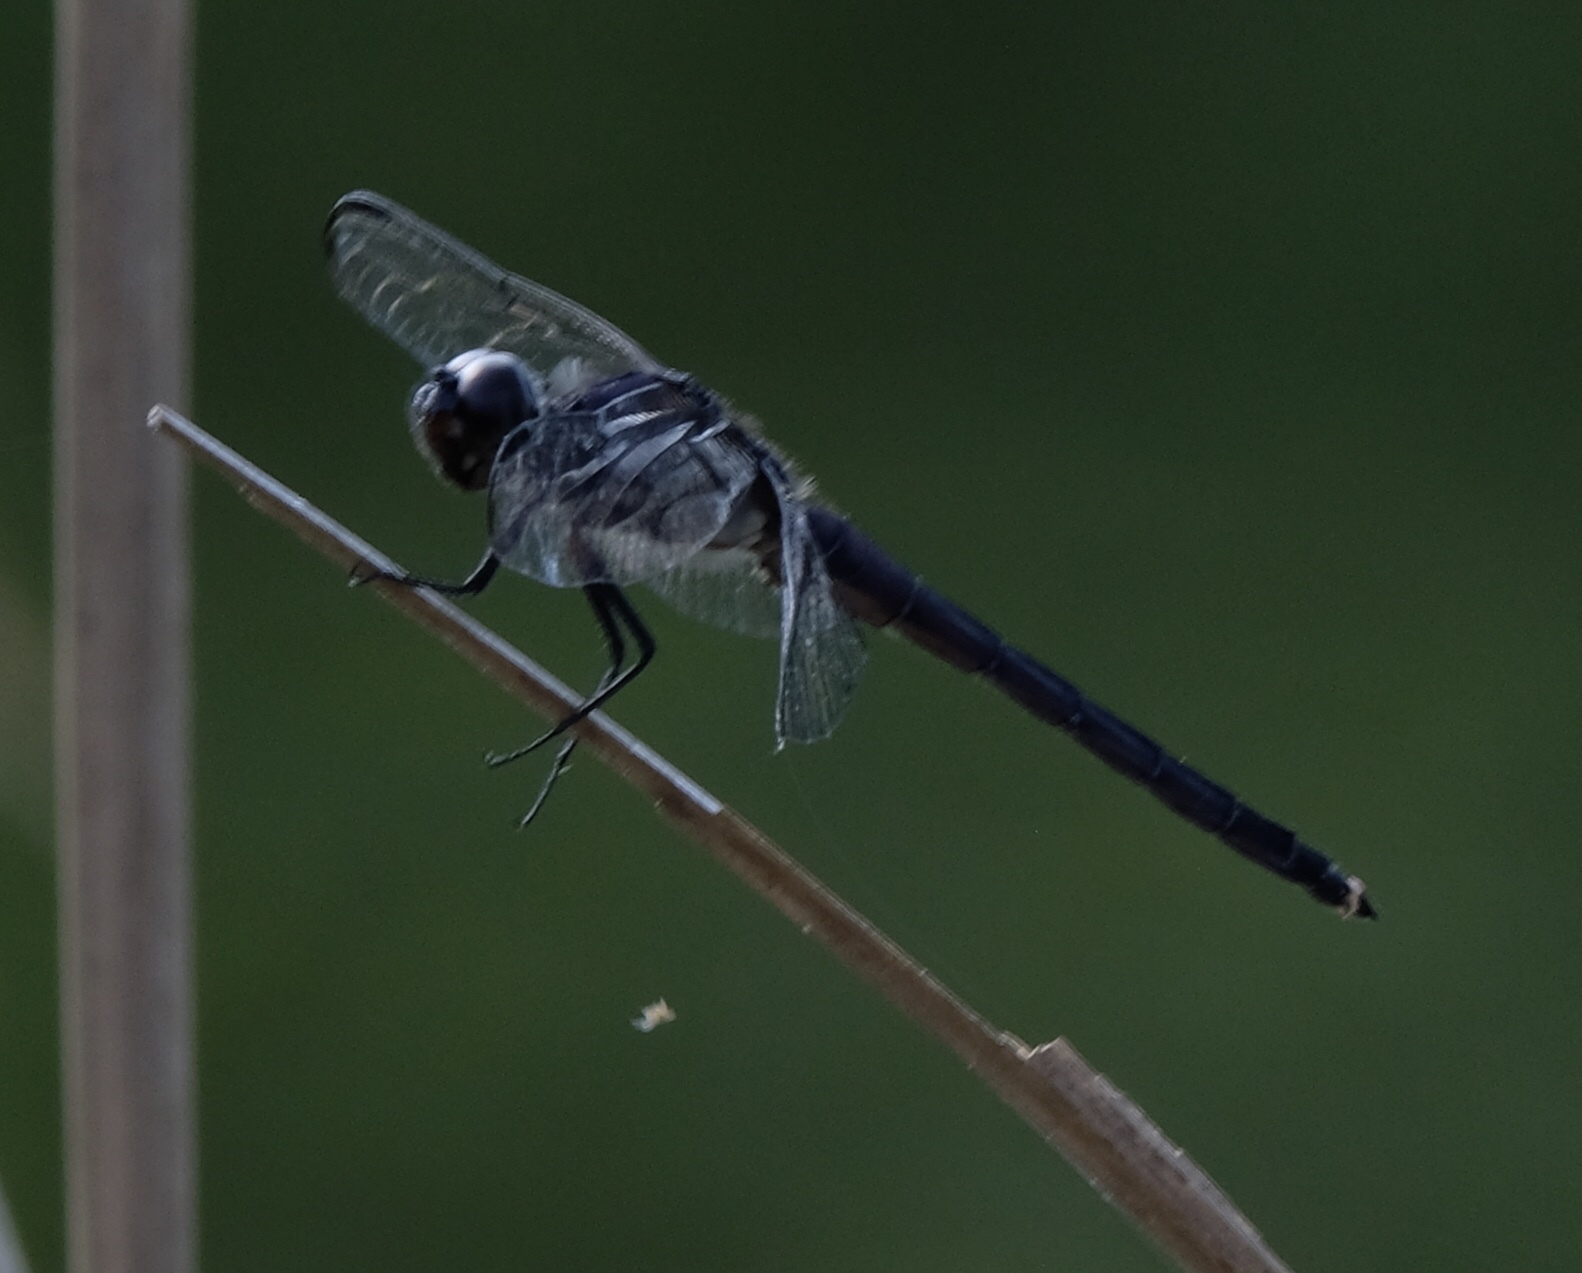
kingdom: Animalia
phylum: Arthropoda
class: Insecta
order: Odonata
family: Libellulidae
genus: Libellula
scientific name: Libellula incesta
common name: Slaty skimmer
